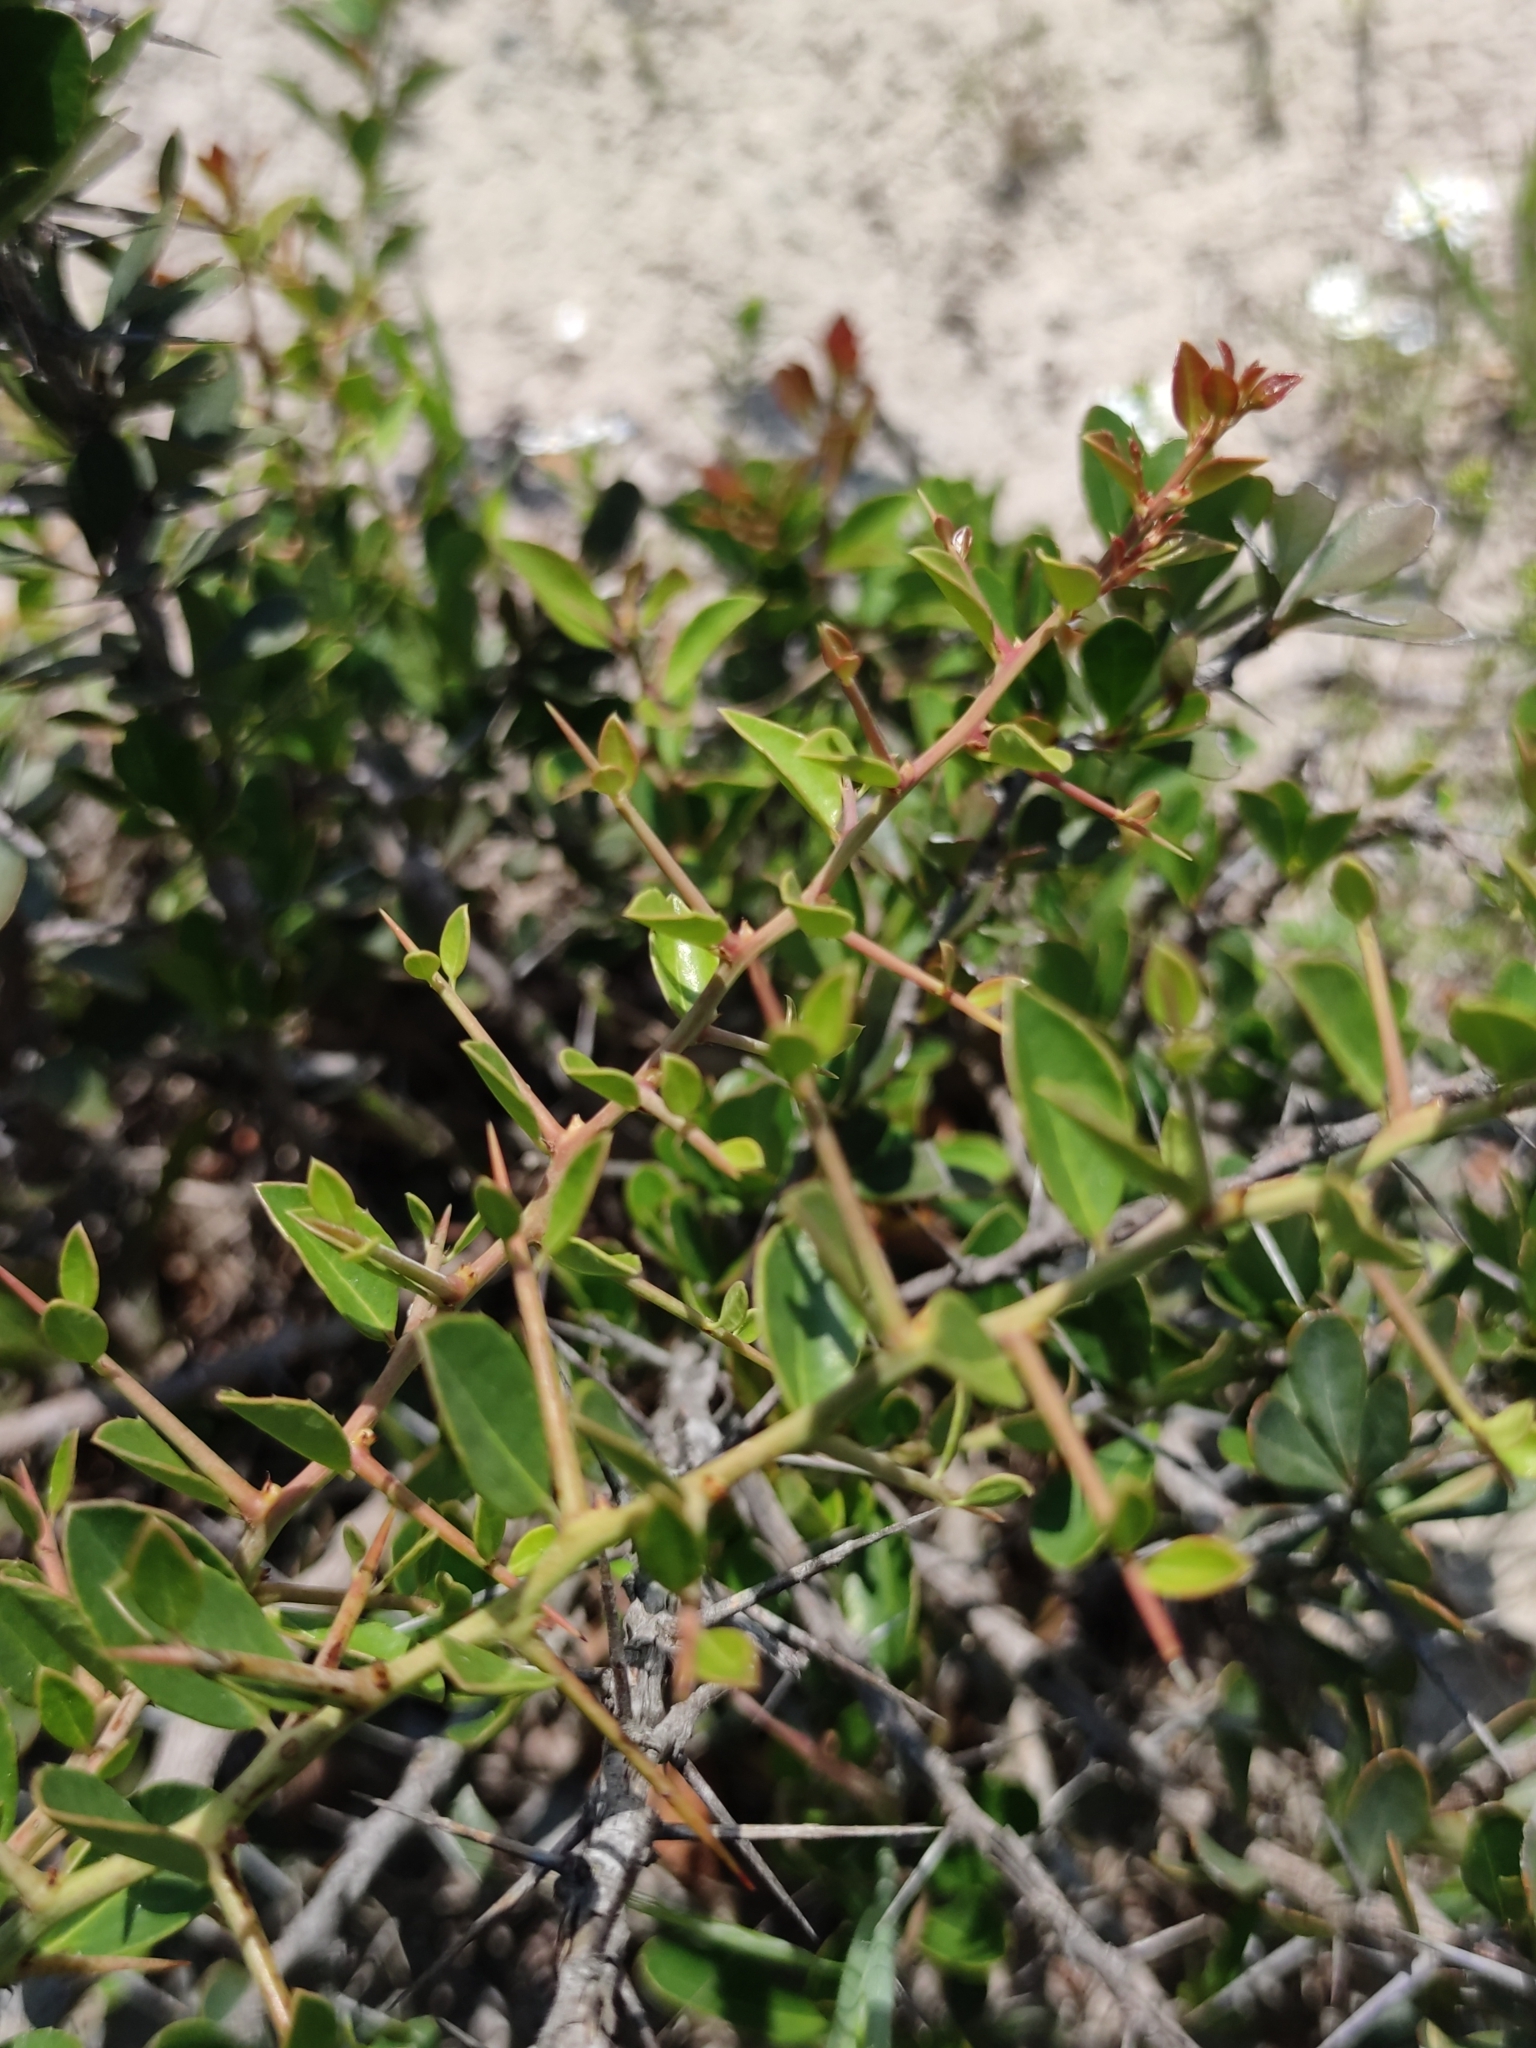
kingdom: Plantae
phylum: Tracheophyta
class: Magnoliopsida
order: Celastrales
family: Celastraceae
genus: Putterlickia
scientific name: Putterlickia pyracantha
